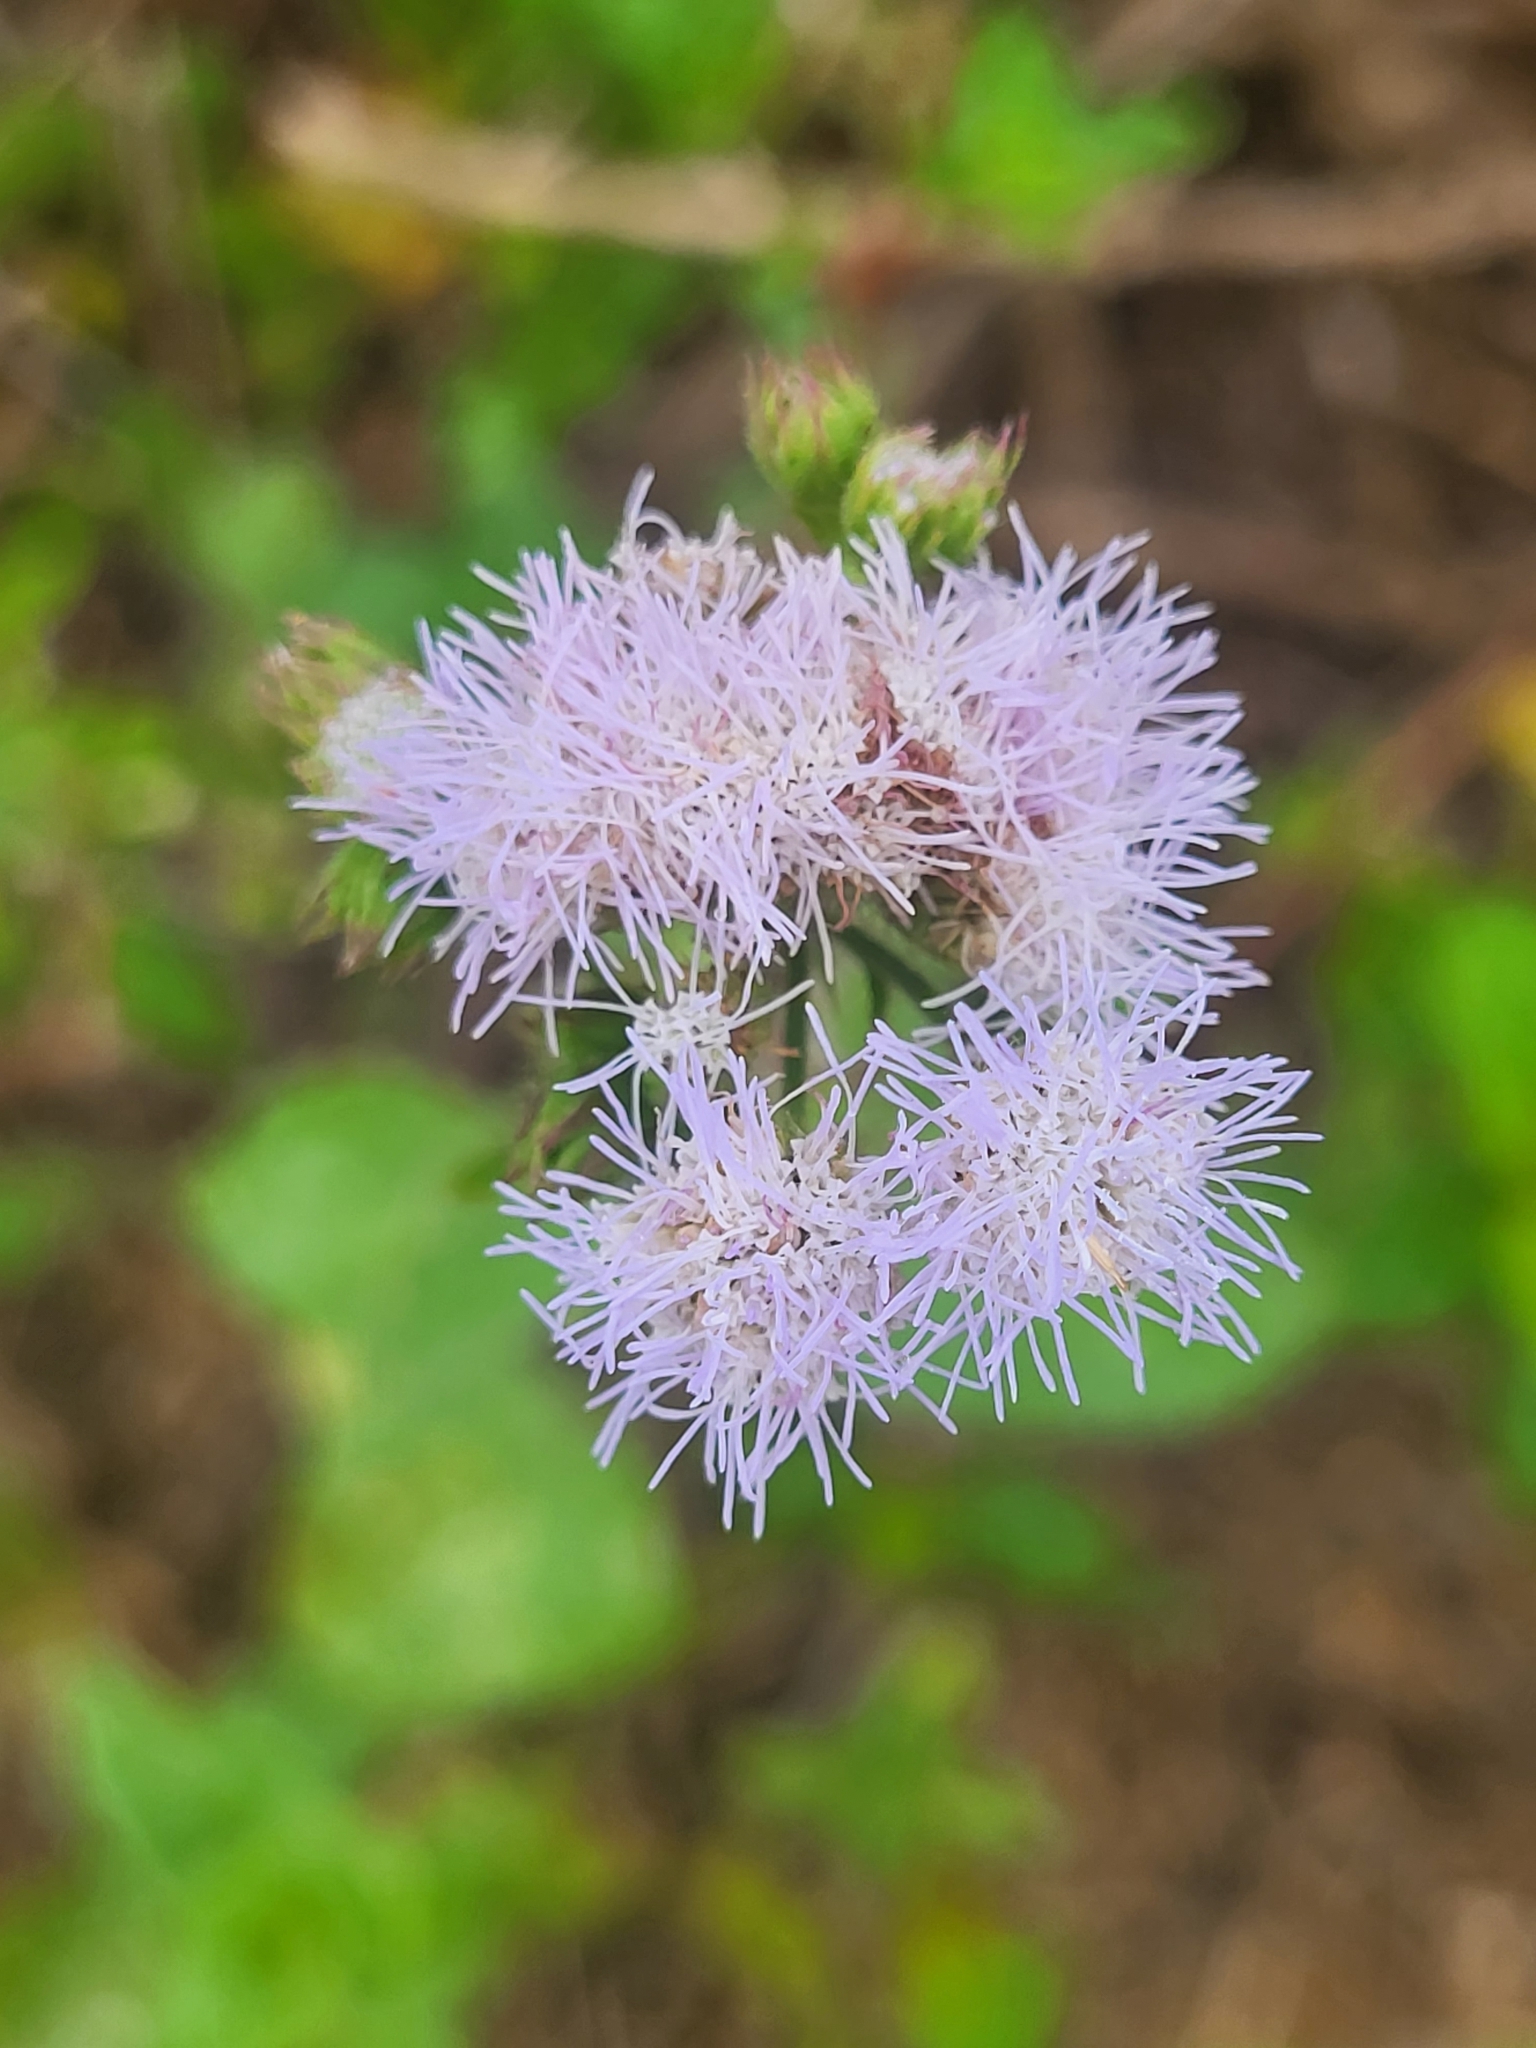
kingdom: Plantae
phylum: Tracheophyta
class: Magnoliopsida
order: Asterales
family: Asteraceae
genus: Ageratum
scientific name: Ageratum houstonianum
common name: Bluemink
